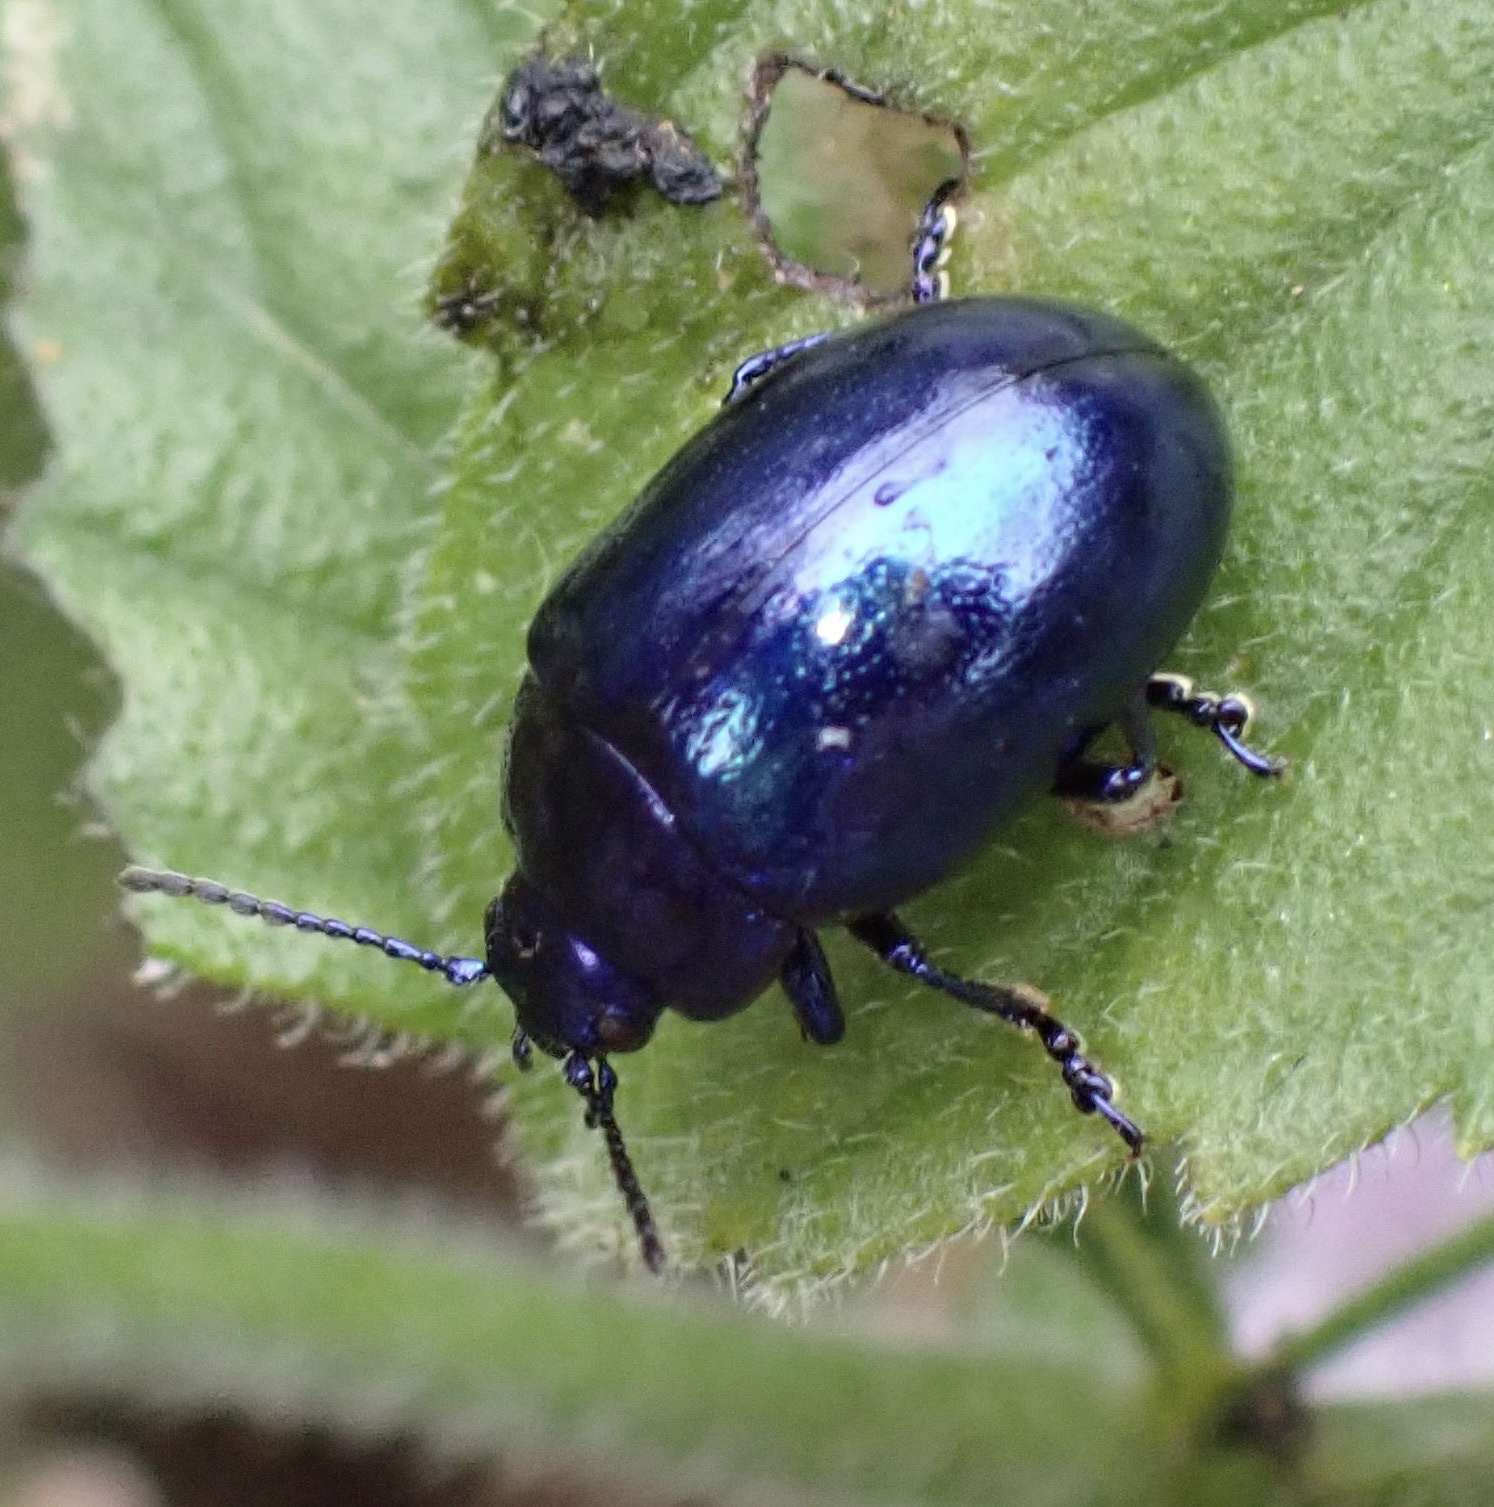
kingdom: Animalia
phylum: Arthropoda
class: Insecta
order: Coleoptera
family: Chrysomelidae
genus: Chrysolina
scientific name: Chrysolina coerulans
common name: Blue mint beetle
